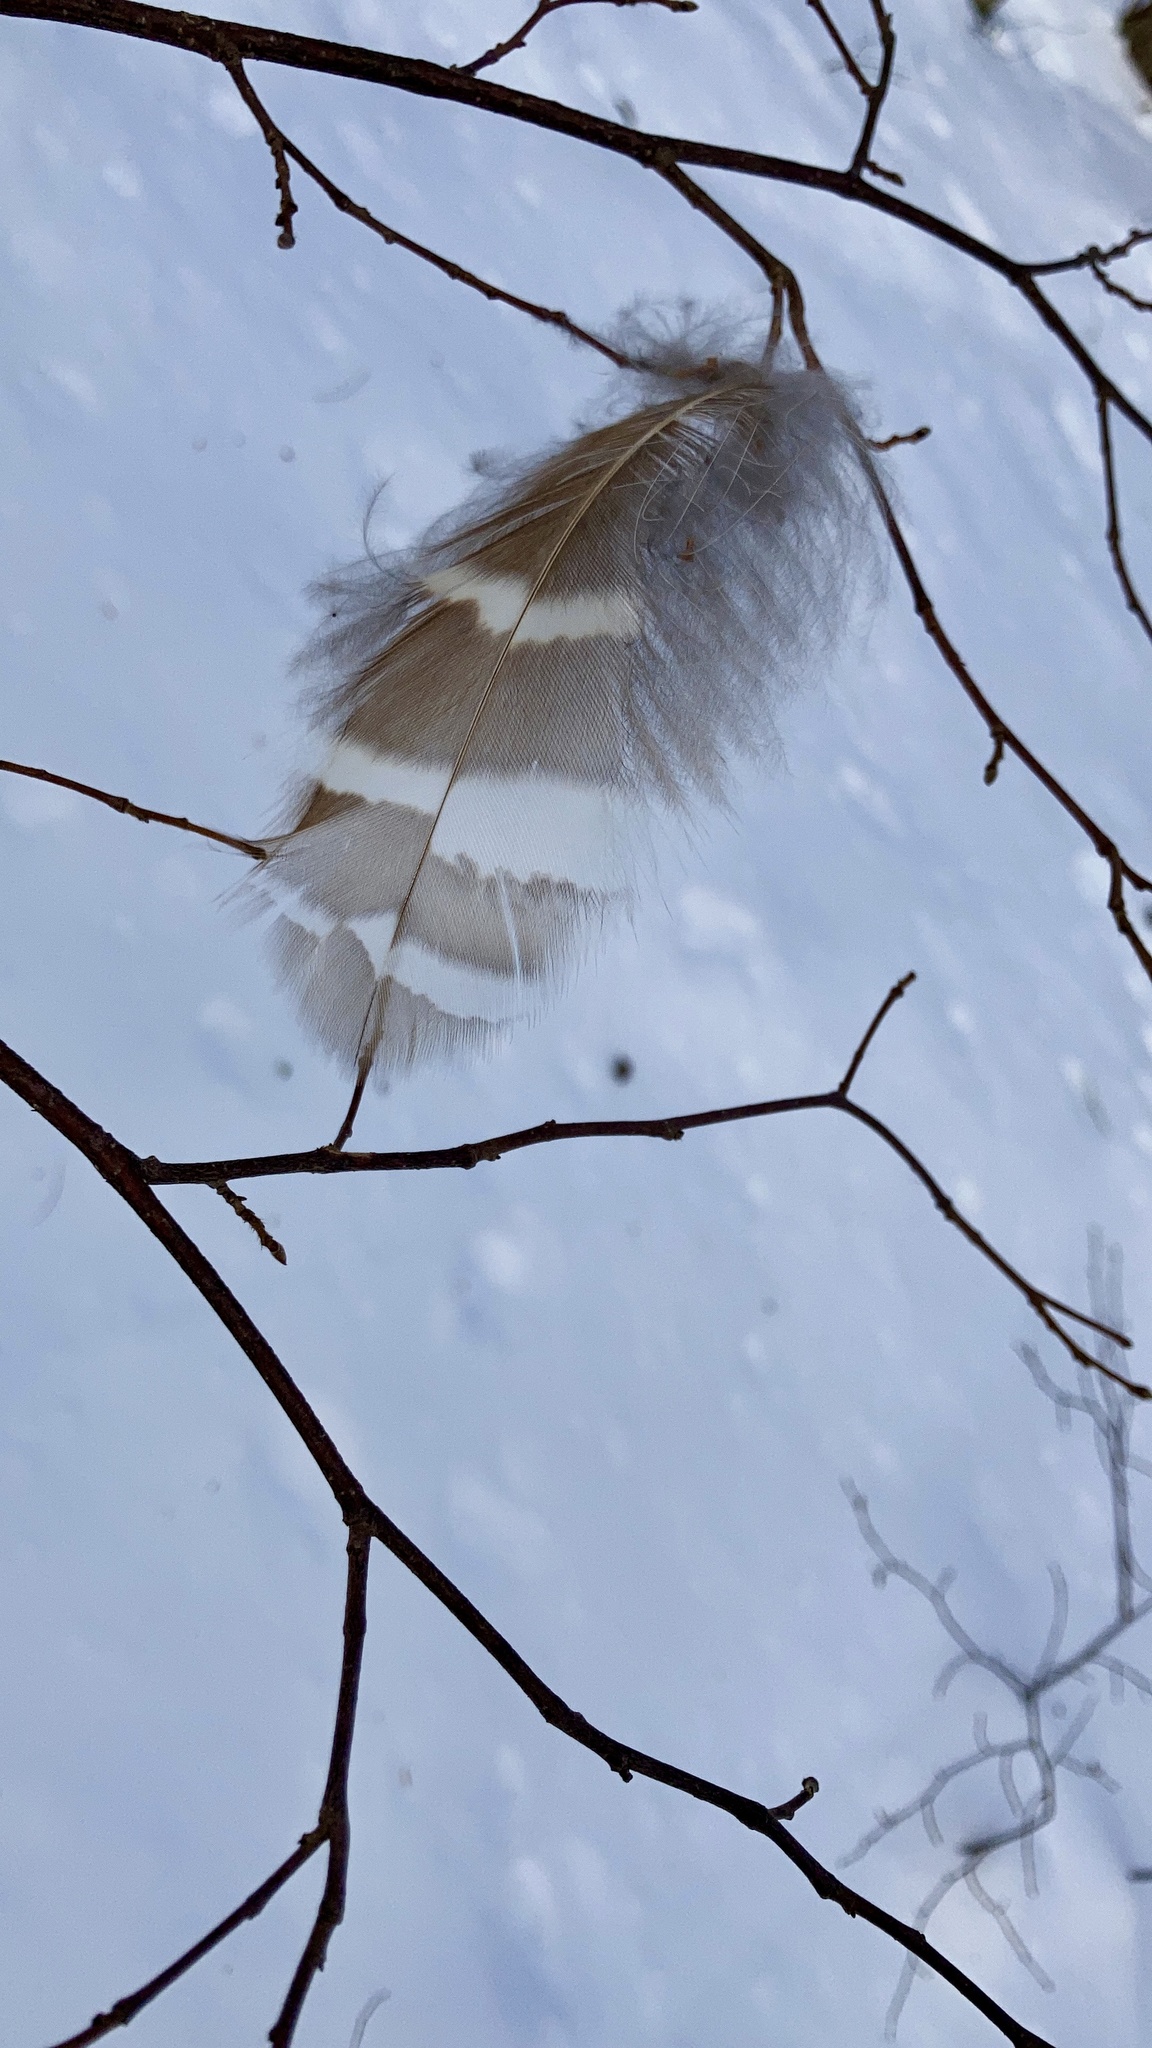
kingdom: Animalia
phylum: Chordata
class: Aves
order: Strigiformes
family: Strigidae
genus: Strix
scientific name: Strix varia
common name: Barred owl
